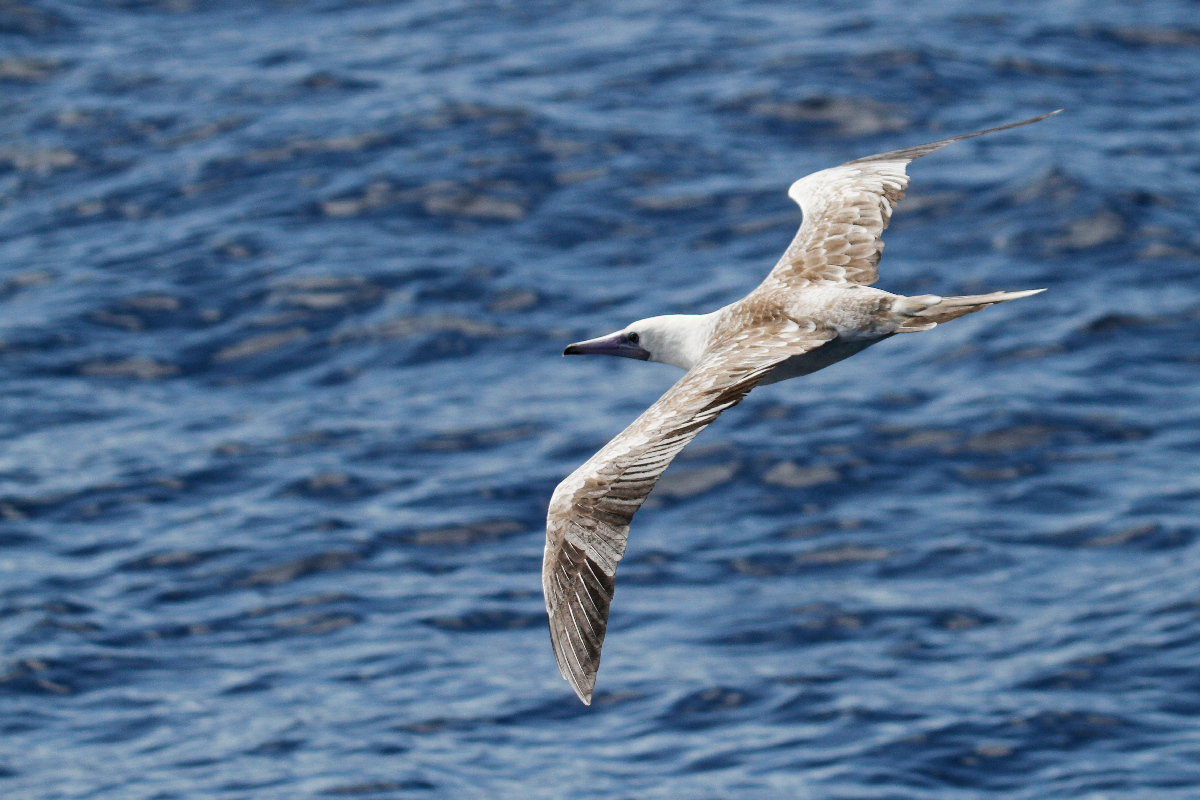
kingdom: Animalia
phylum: Chordata
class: Aves
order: Suliformes
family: Sulidae
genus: Sula
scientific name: Sula sula
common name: Red-footed booby
